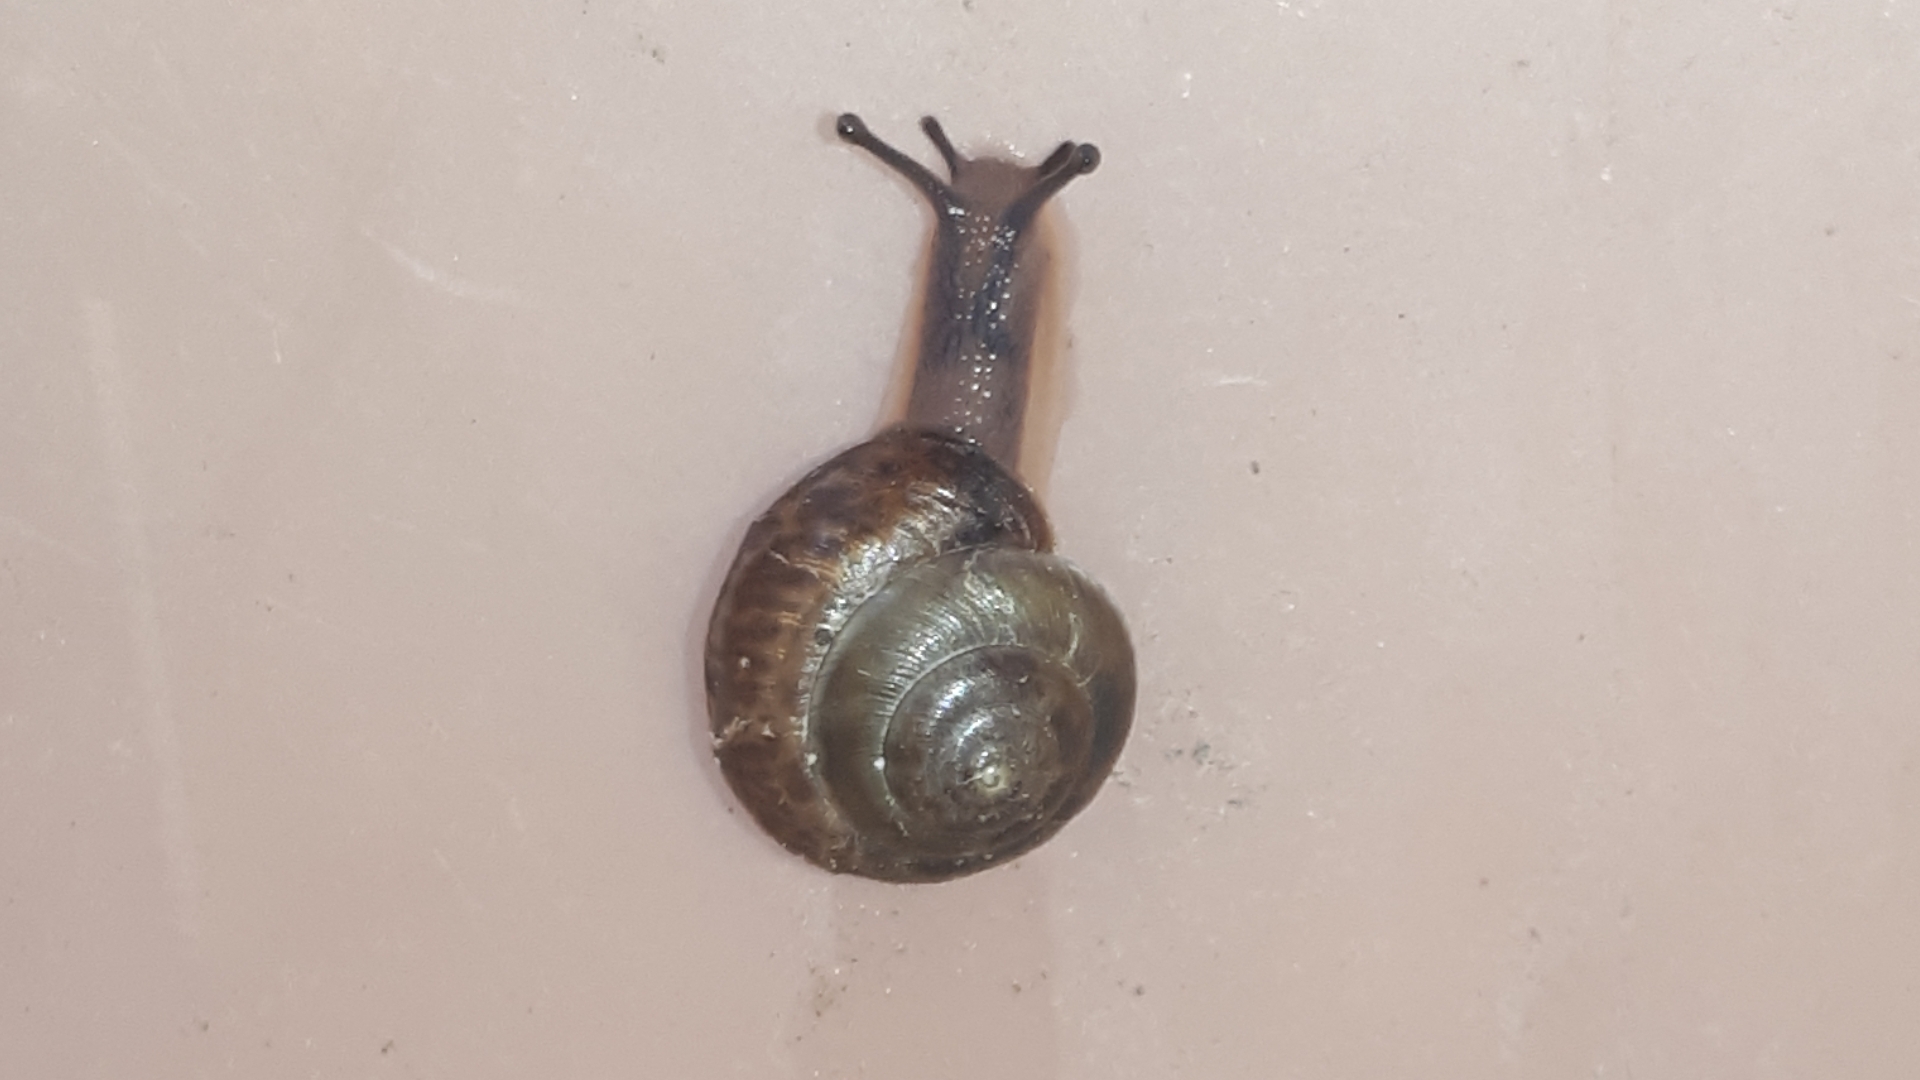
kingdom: Animalia
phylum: Mollusca
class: Gastropoda
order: Stylommatophora
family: Hygromiidae
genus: Hygromia
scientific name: Hygromia cinctella
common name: Girdled snail
